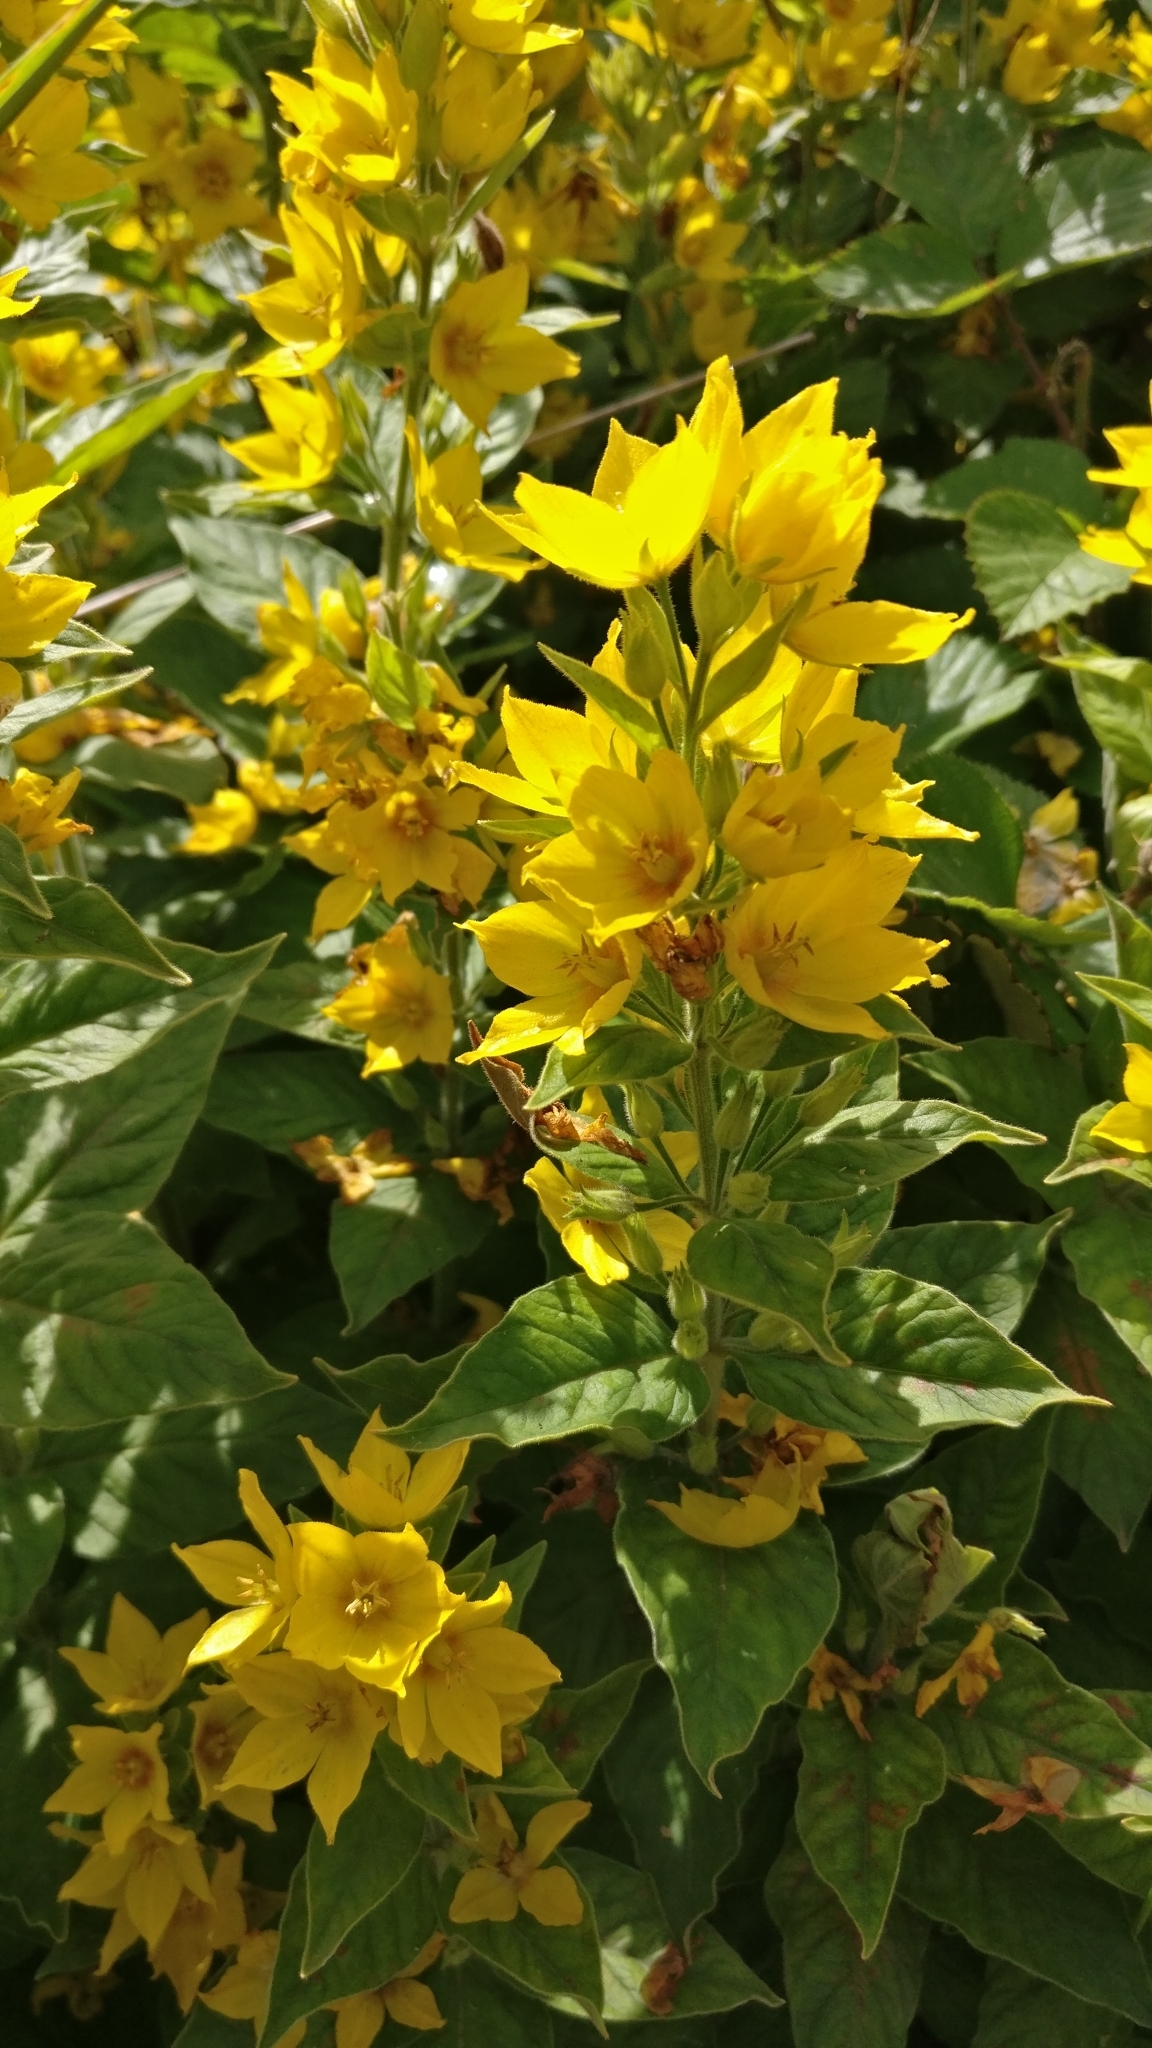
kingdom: Plantae
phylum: Tracheophyta
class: Magnoliopsida
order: Ericales
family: Primulaceae
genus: Lysimachia
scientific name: Lysimachia punctata
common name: Dotted loosestrife
